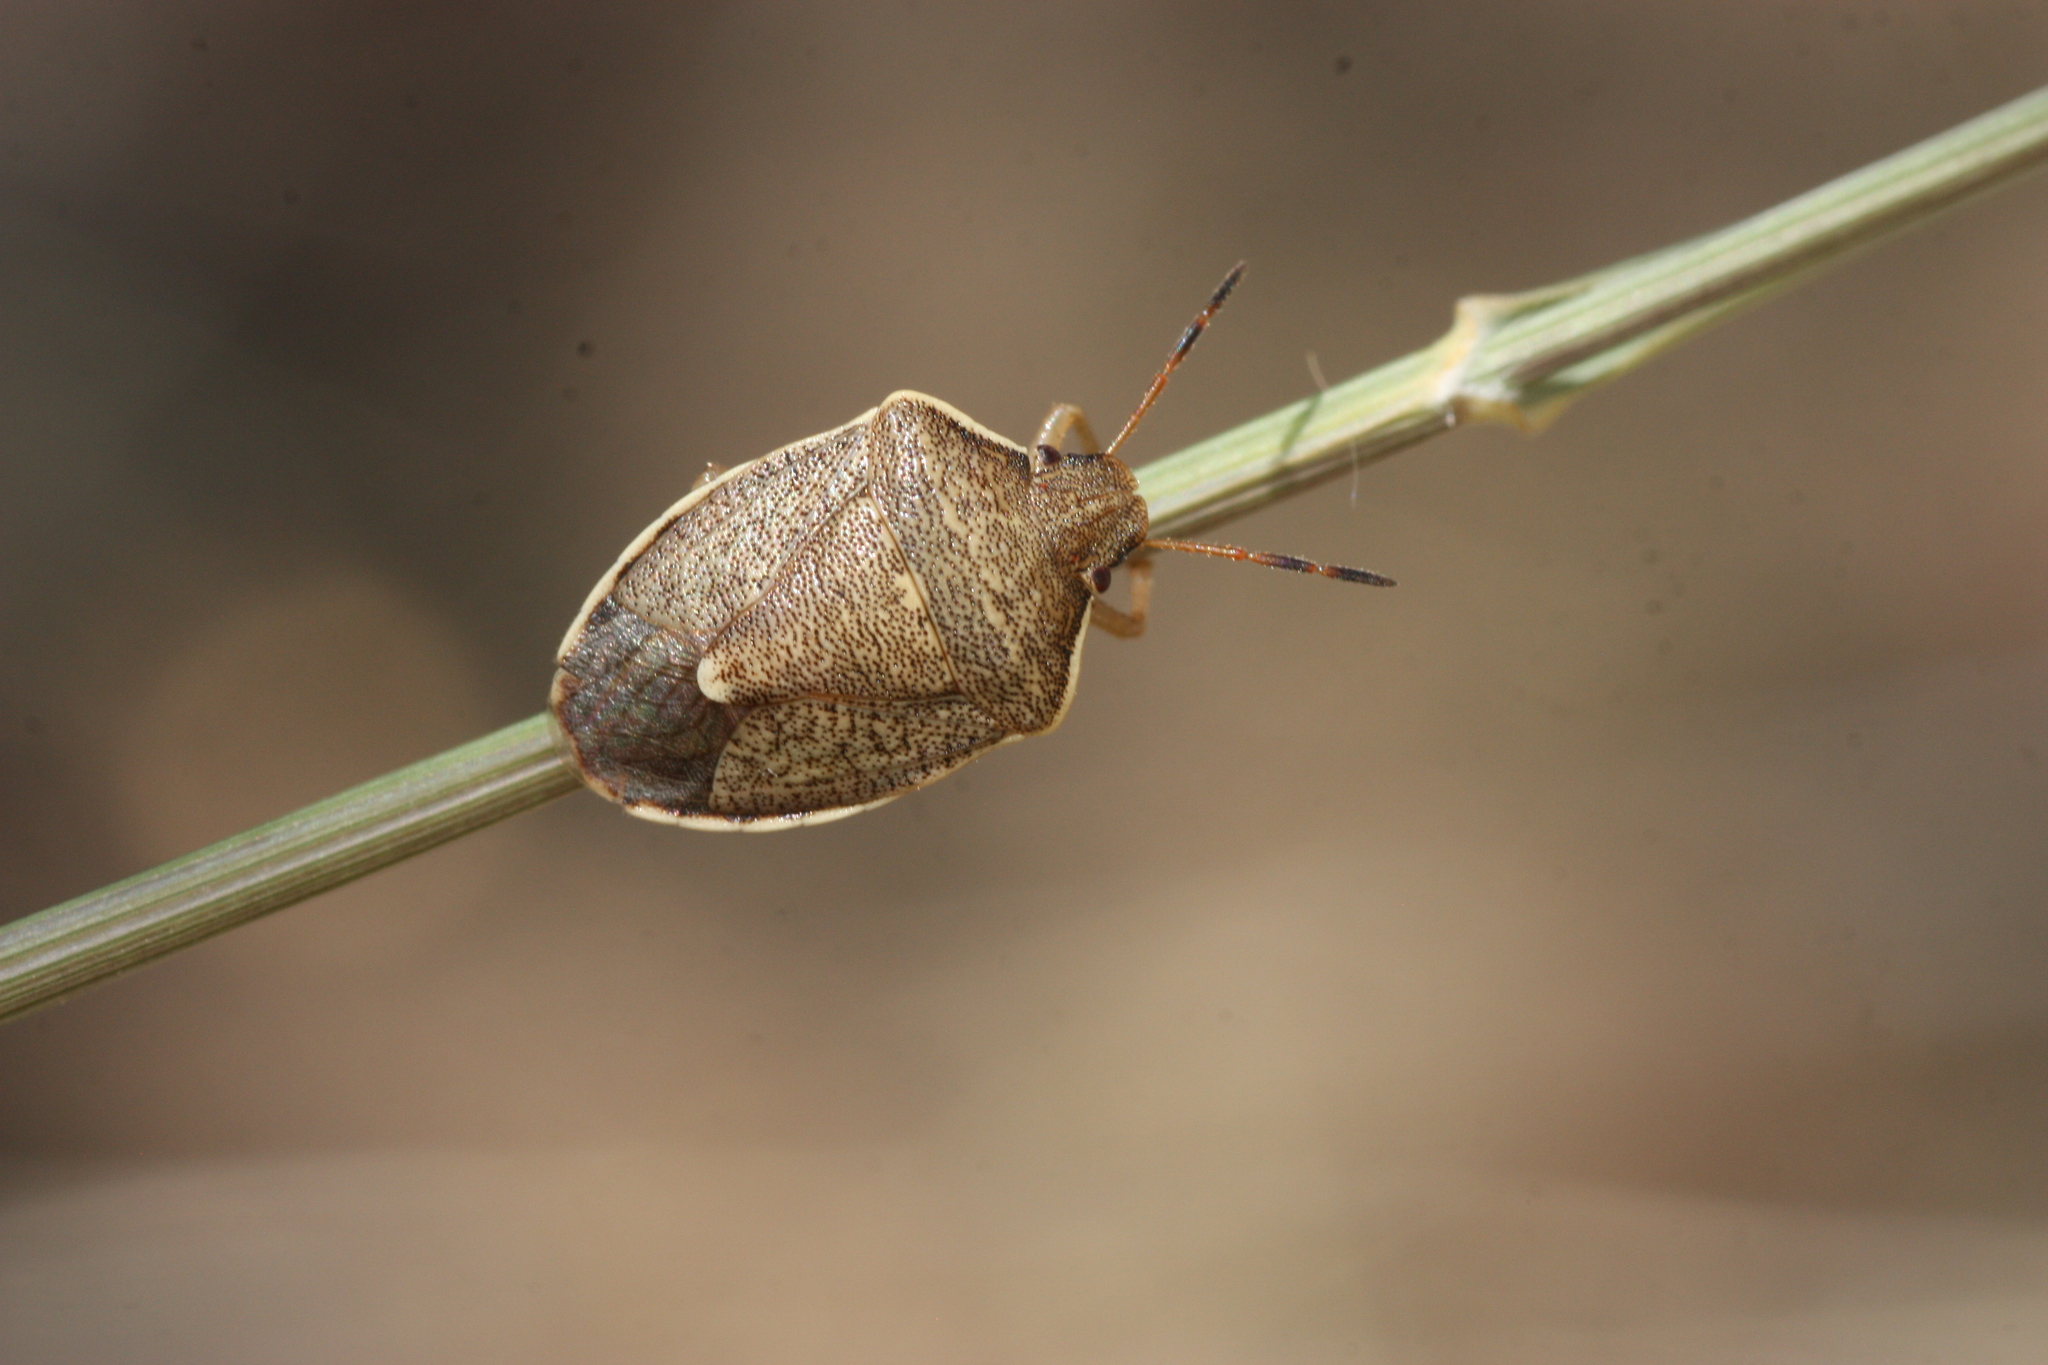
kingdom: Animalia
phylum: Arthropoda
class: Insecta
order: Hemiptera
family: Pentatomidae
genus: Holcostethus
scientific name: Holcostethus limbolarius
